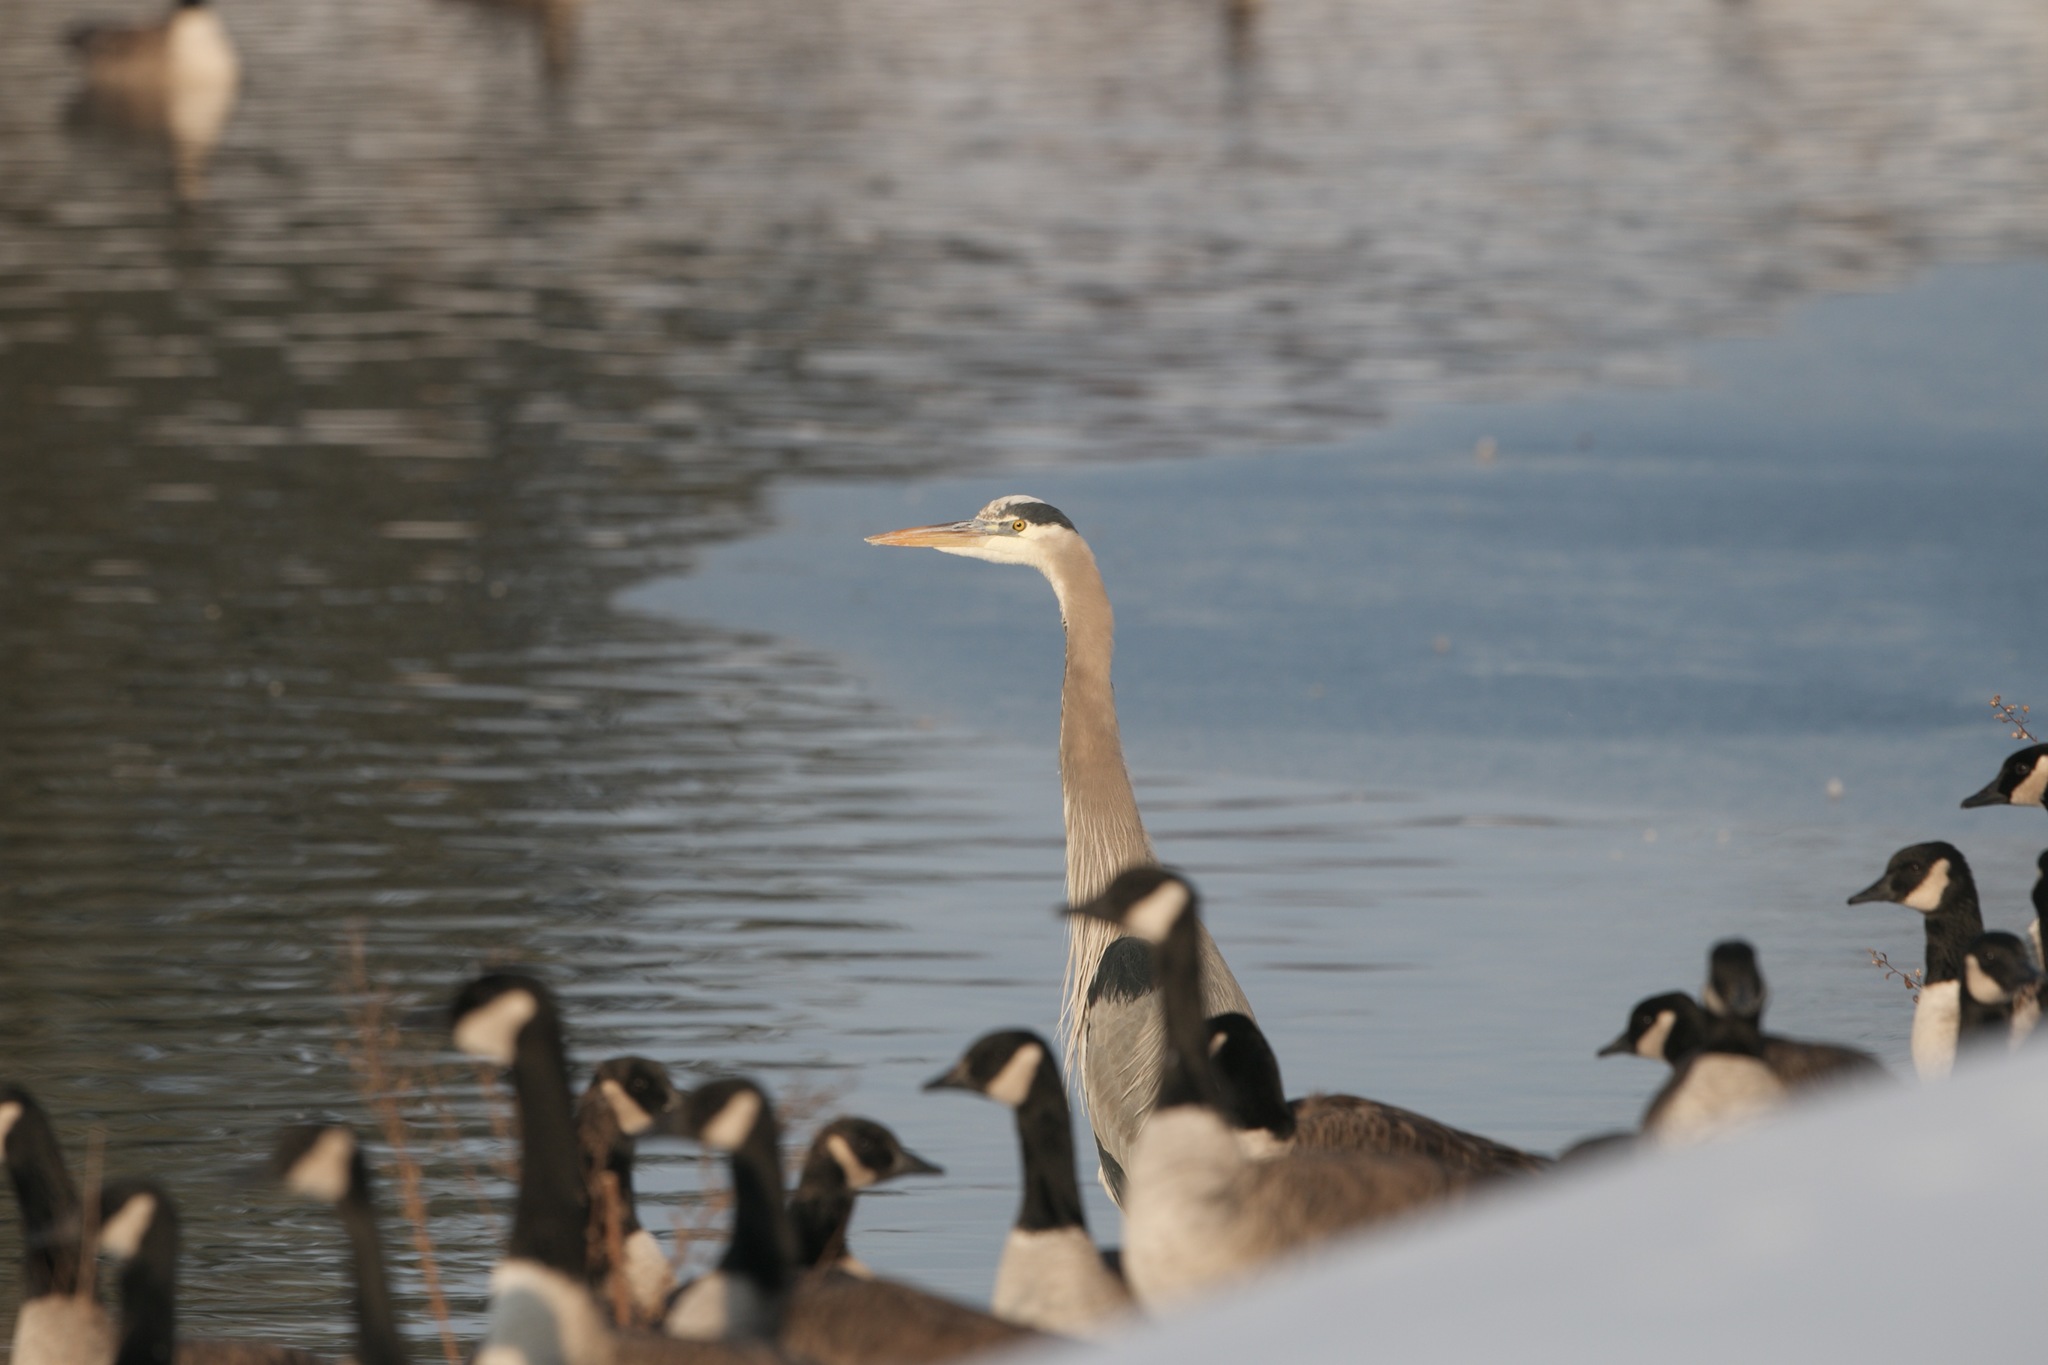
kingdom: Animalia
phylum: Chordata
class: Aves
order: Pelecaniformes
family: Ardeidae
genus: Ardea
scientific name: Ardea herodias
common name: Great blue heron
